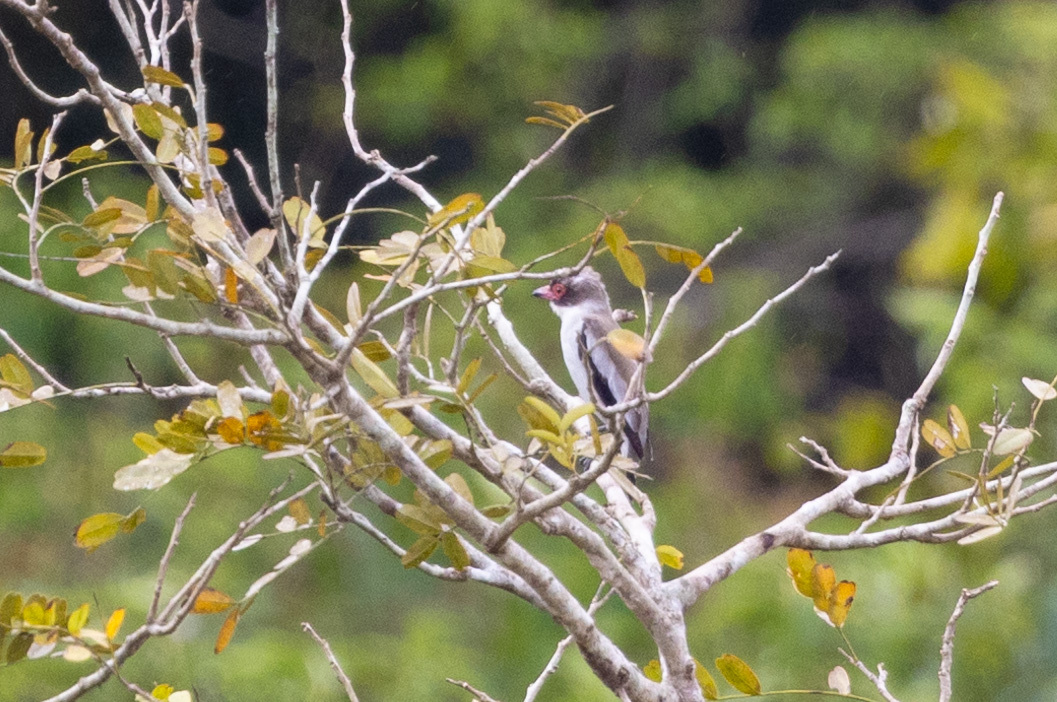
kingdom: Animalia
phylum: Chordata
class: Aves
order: Passeriformes
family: Cotingidae
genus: Tityra
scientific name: Tityra semifasciata
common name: Masked tityra
